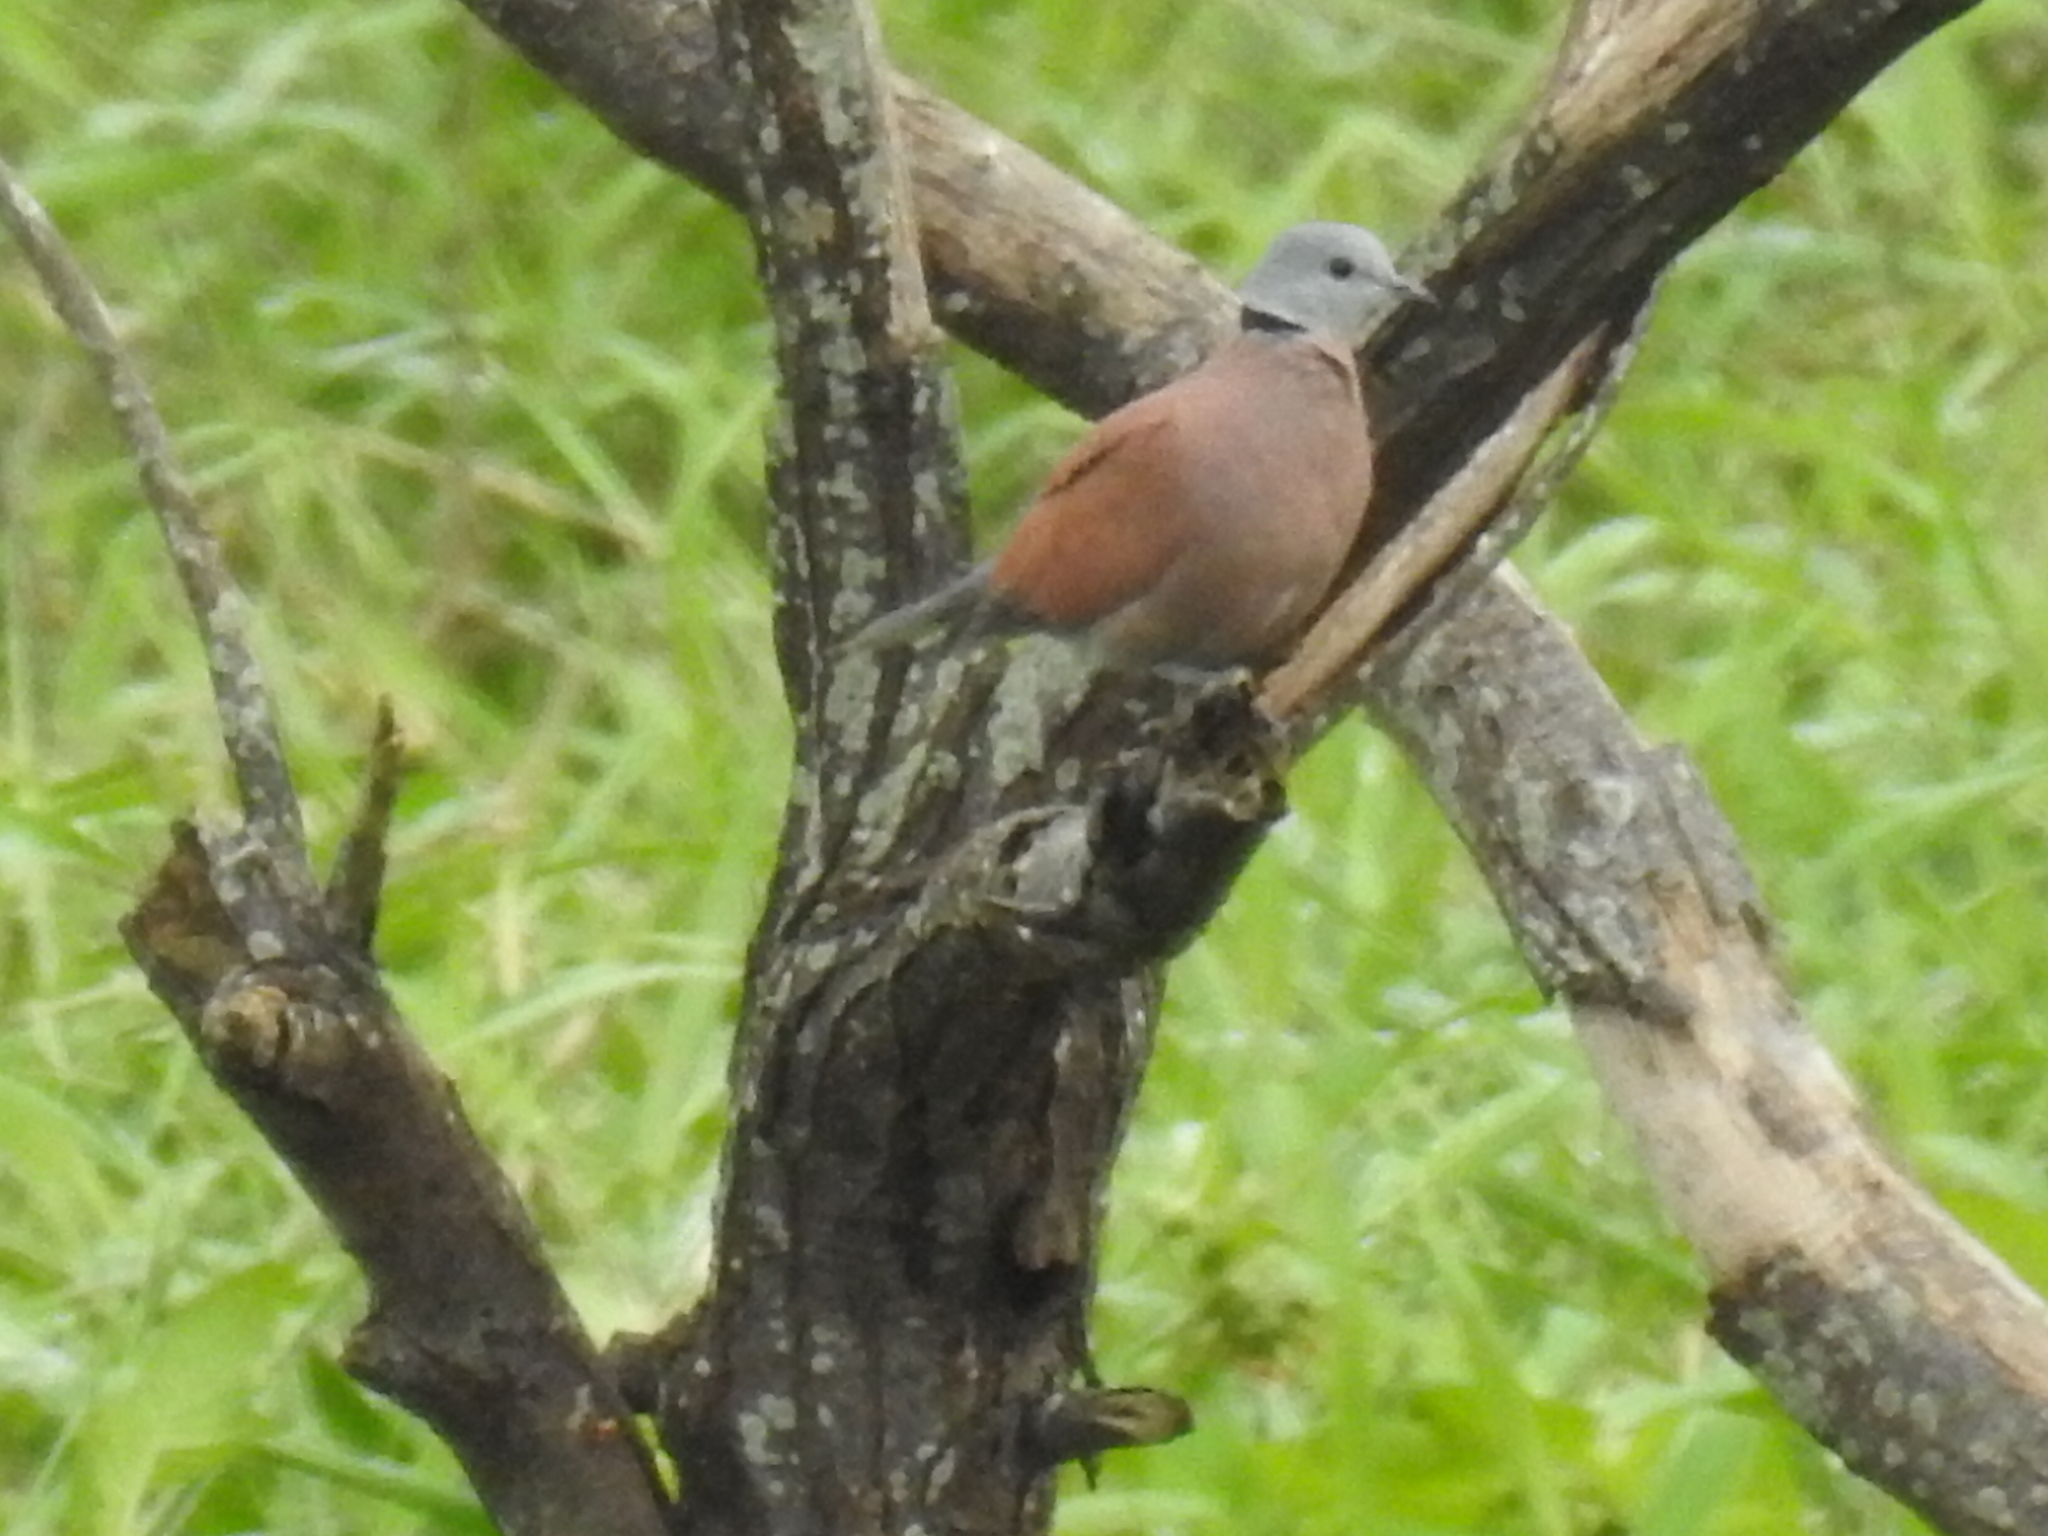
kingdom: Animalia
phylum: Chordata
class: Aves
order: Columbiformes
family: Columbidae
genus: Streptopelia
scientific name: Streptopelia tranquebarica
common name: Red turtle dove
